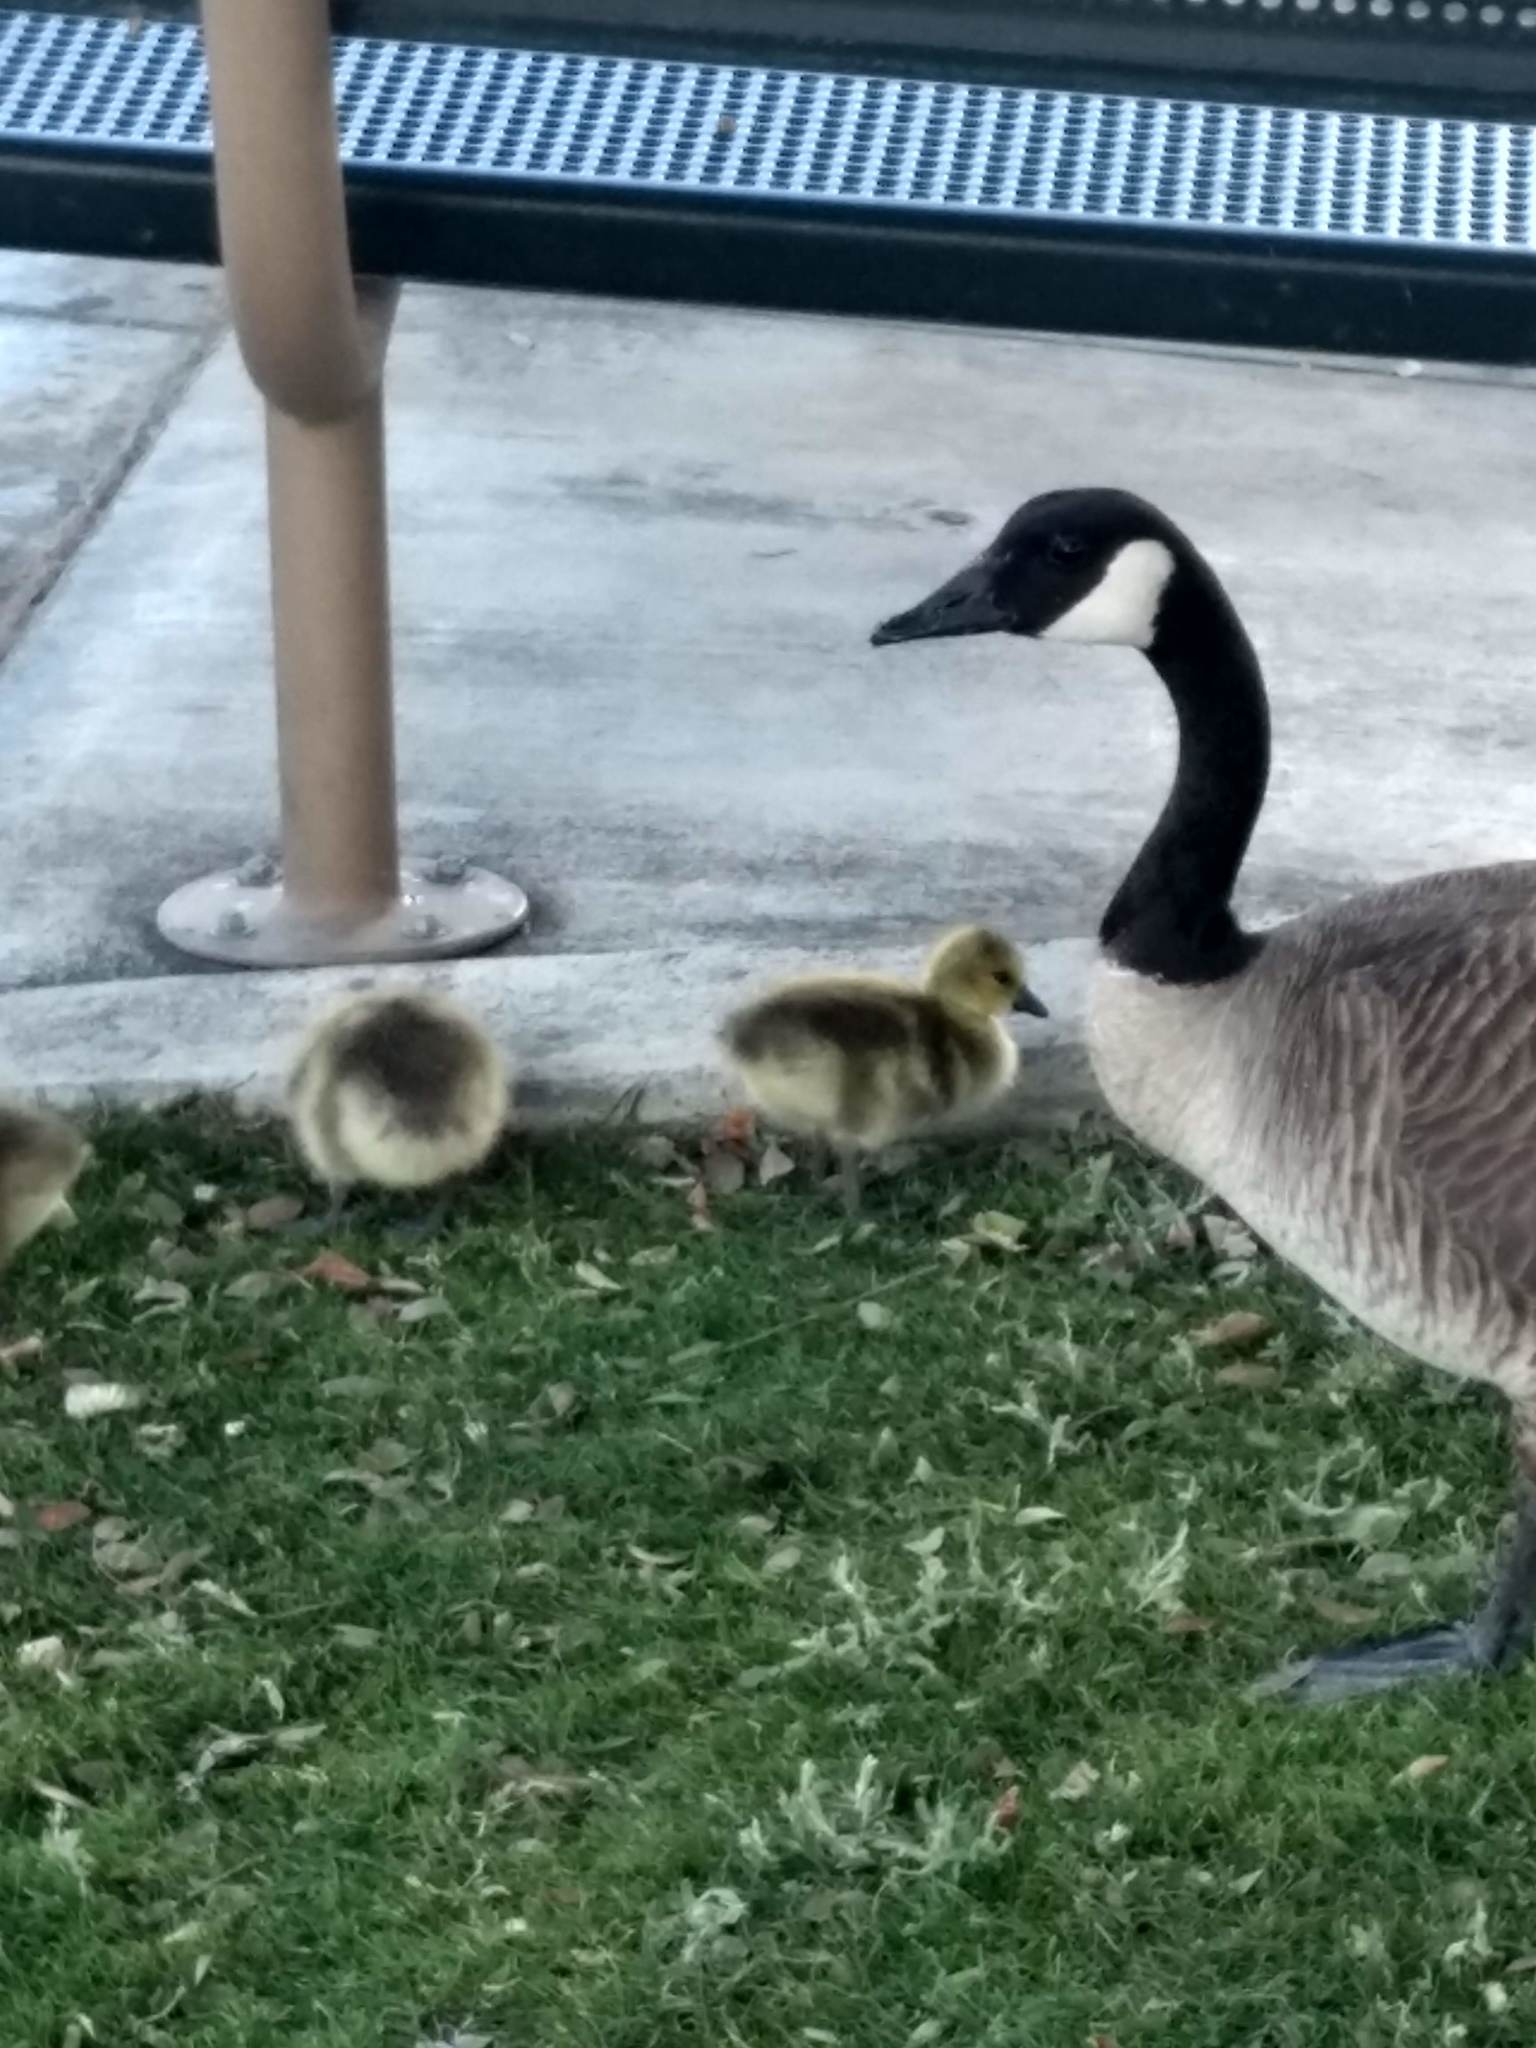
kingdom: Animalia
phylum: Chordata
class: Aves
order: Anseriformes
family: Anatidae
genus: Branta
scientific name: Branta canadensis
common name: Canada goose
